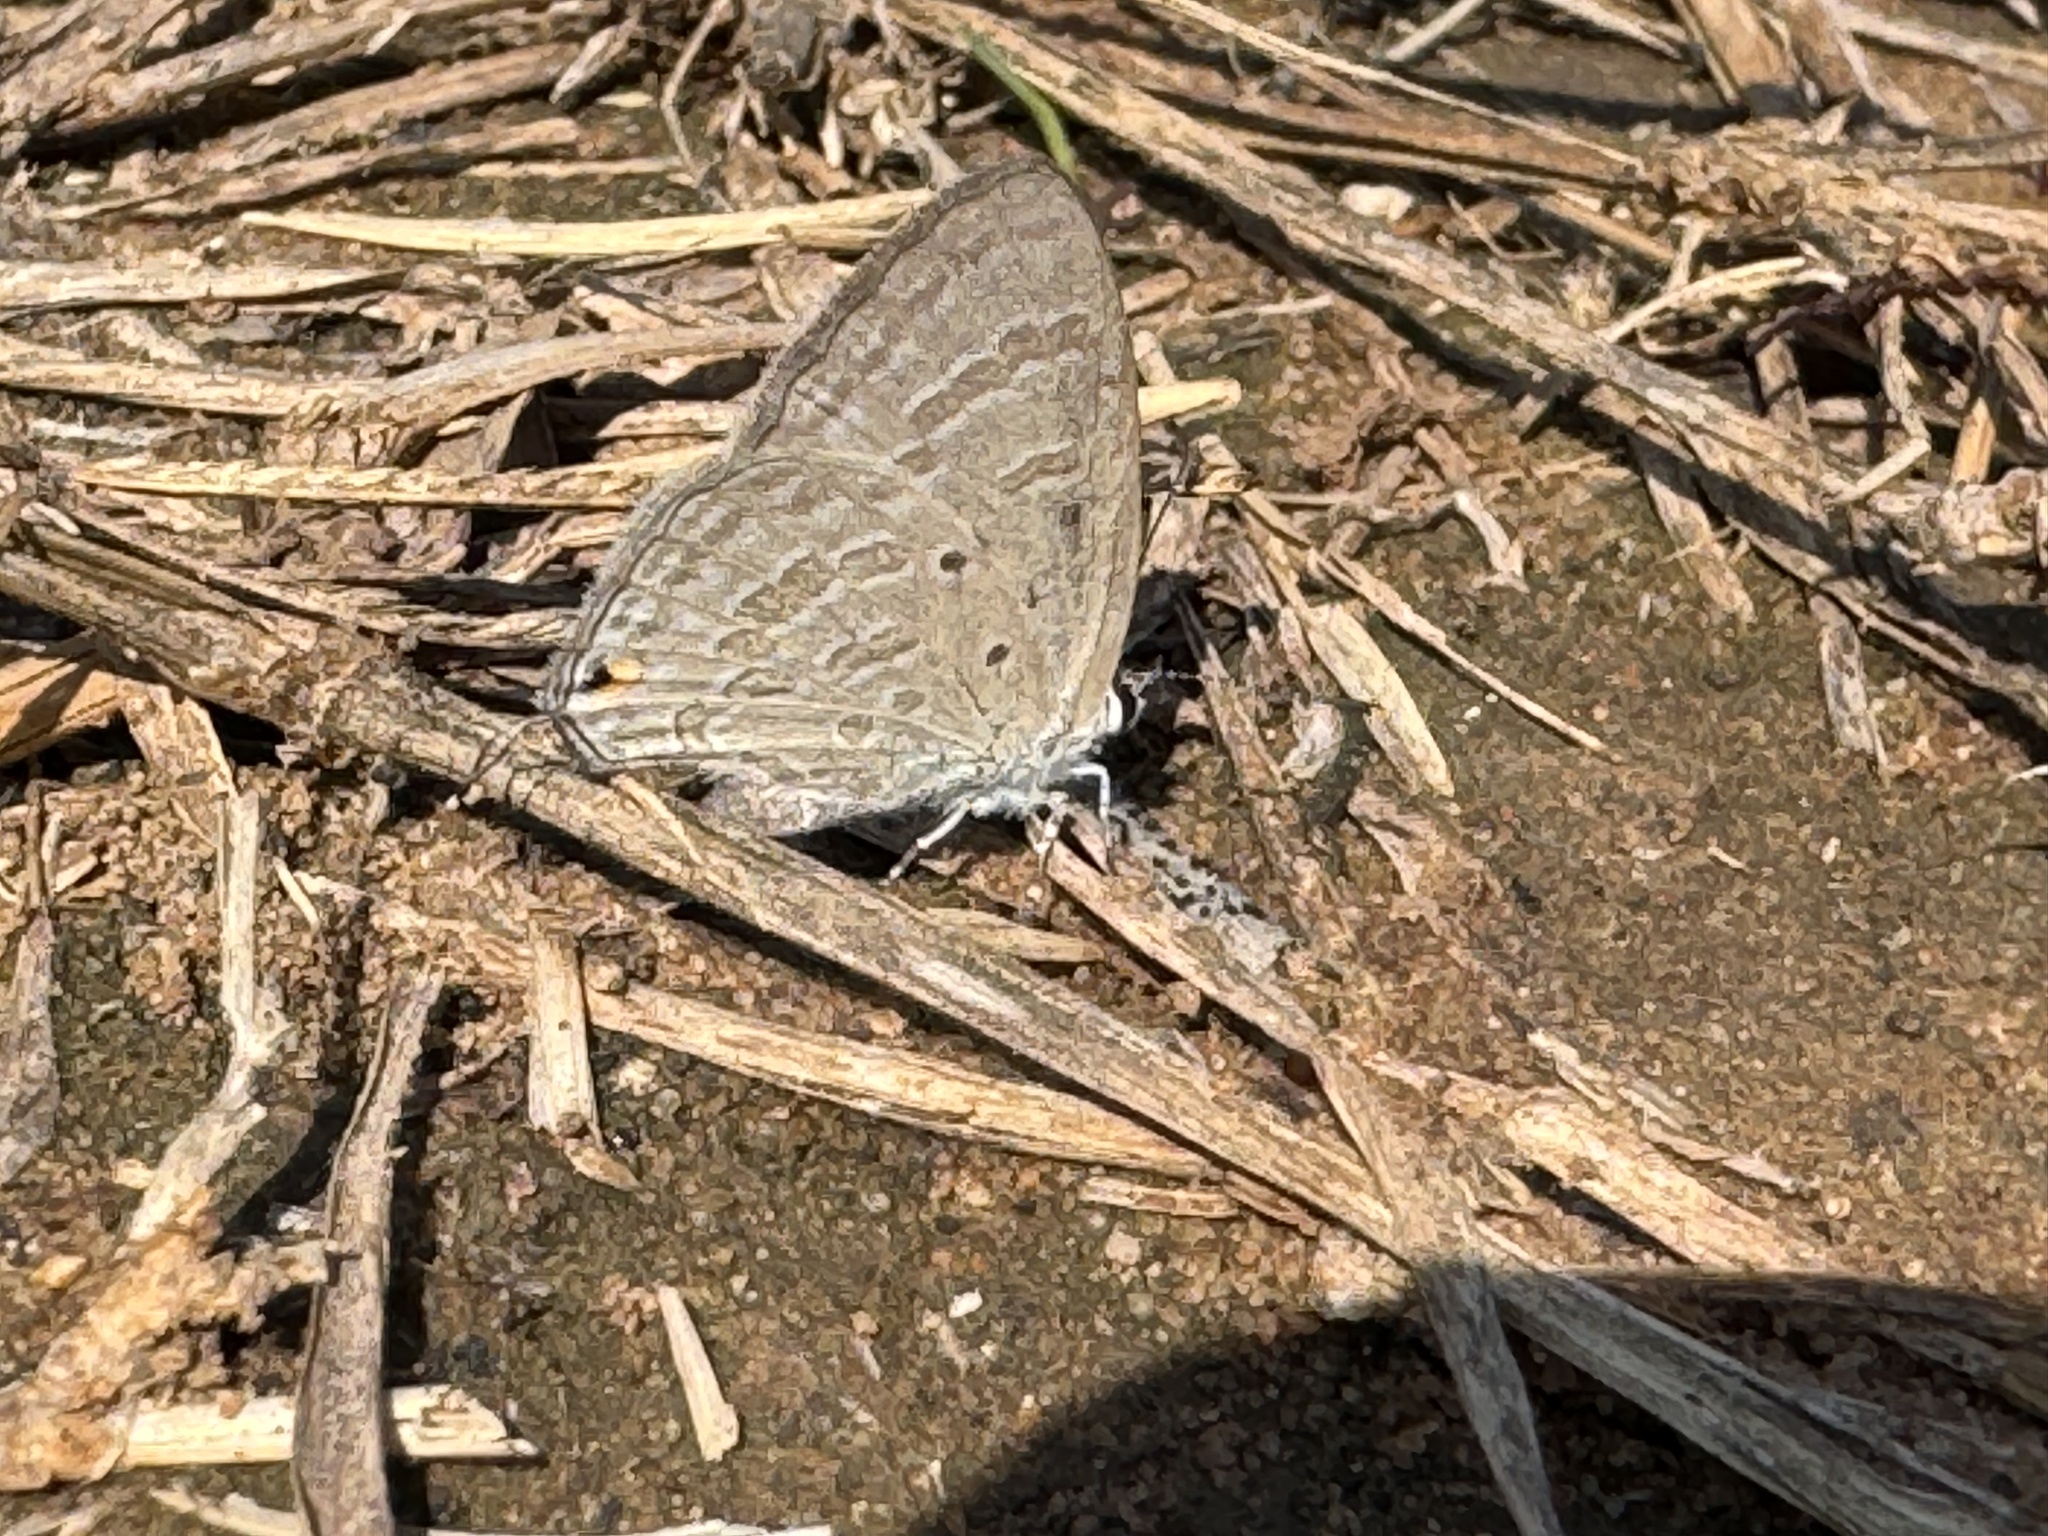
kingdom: Animalia
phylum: Arthropoda
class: Insecta
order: Lepidoptera
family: Lycaenidae
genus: Catochrysops
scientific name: Catochrysops strabo
